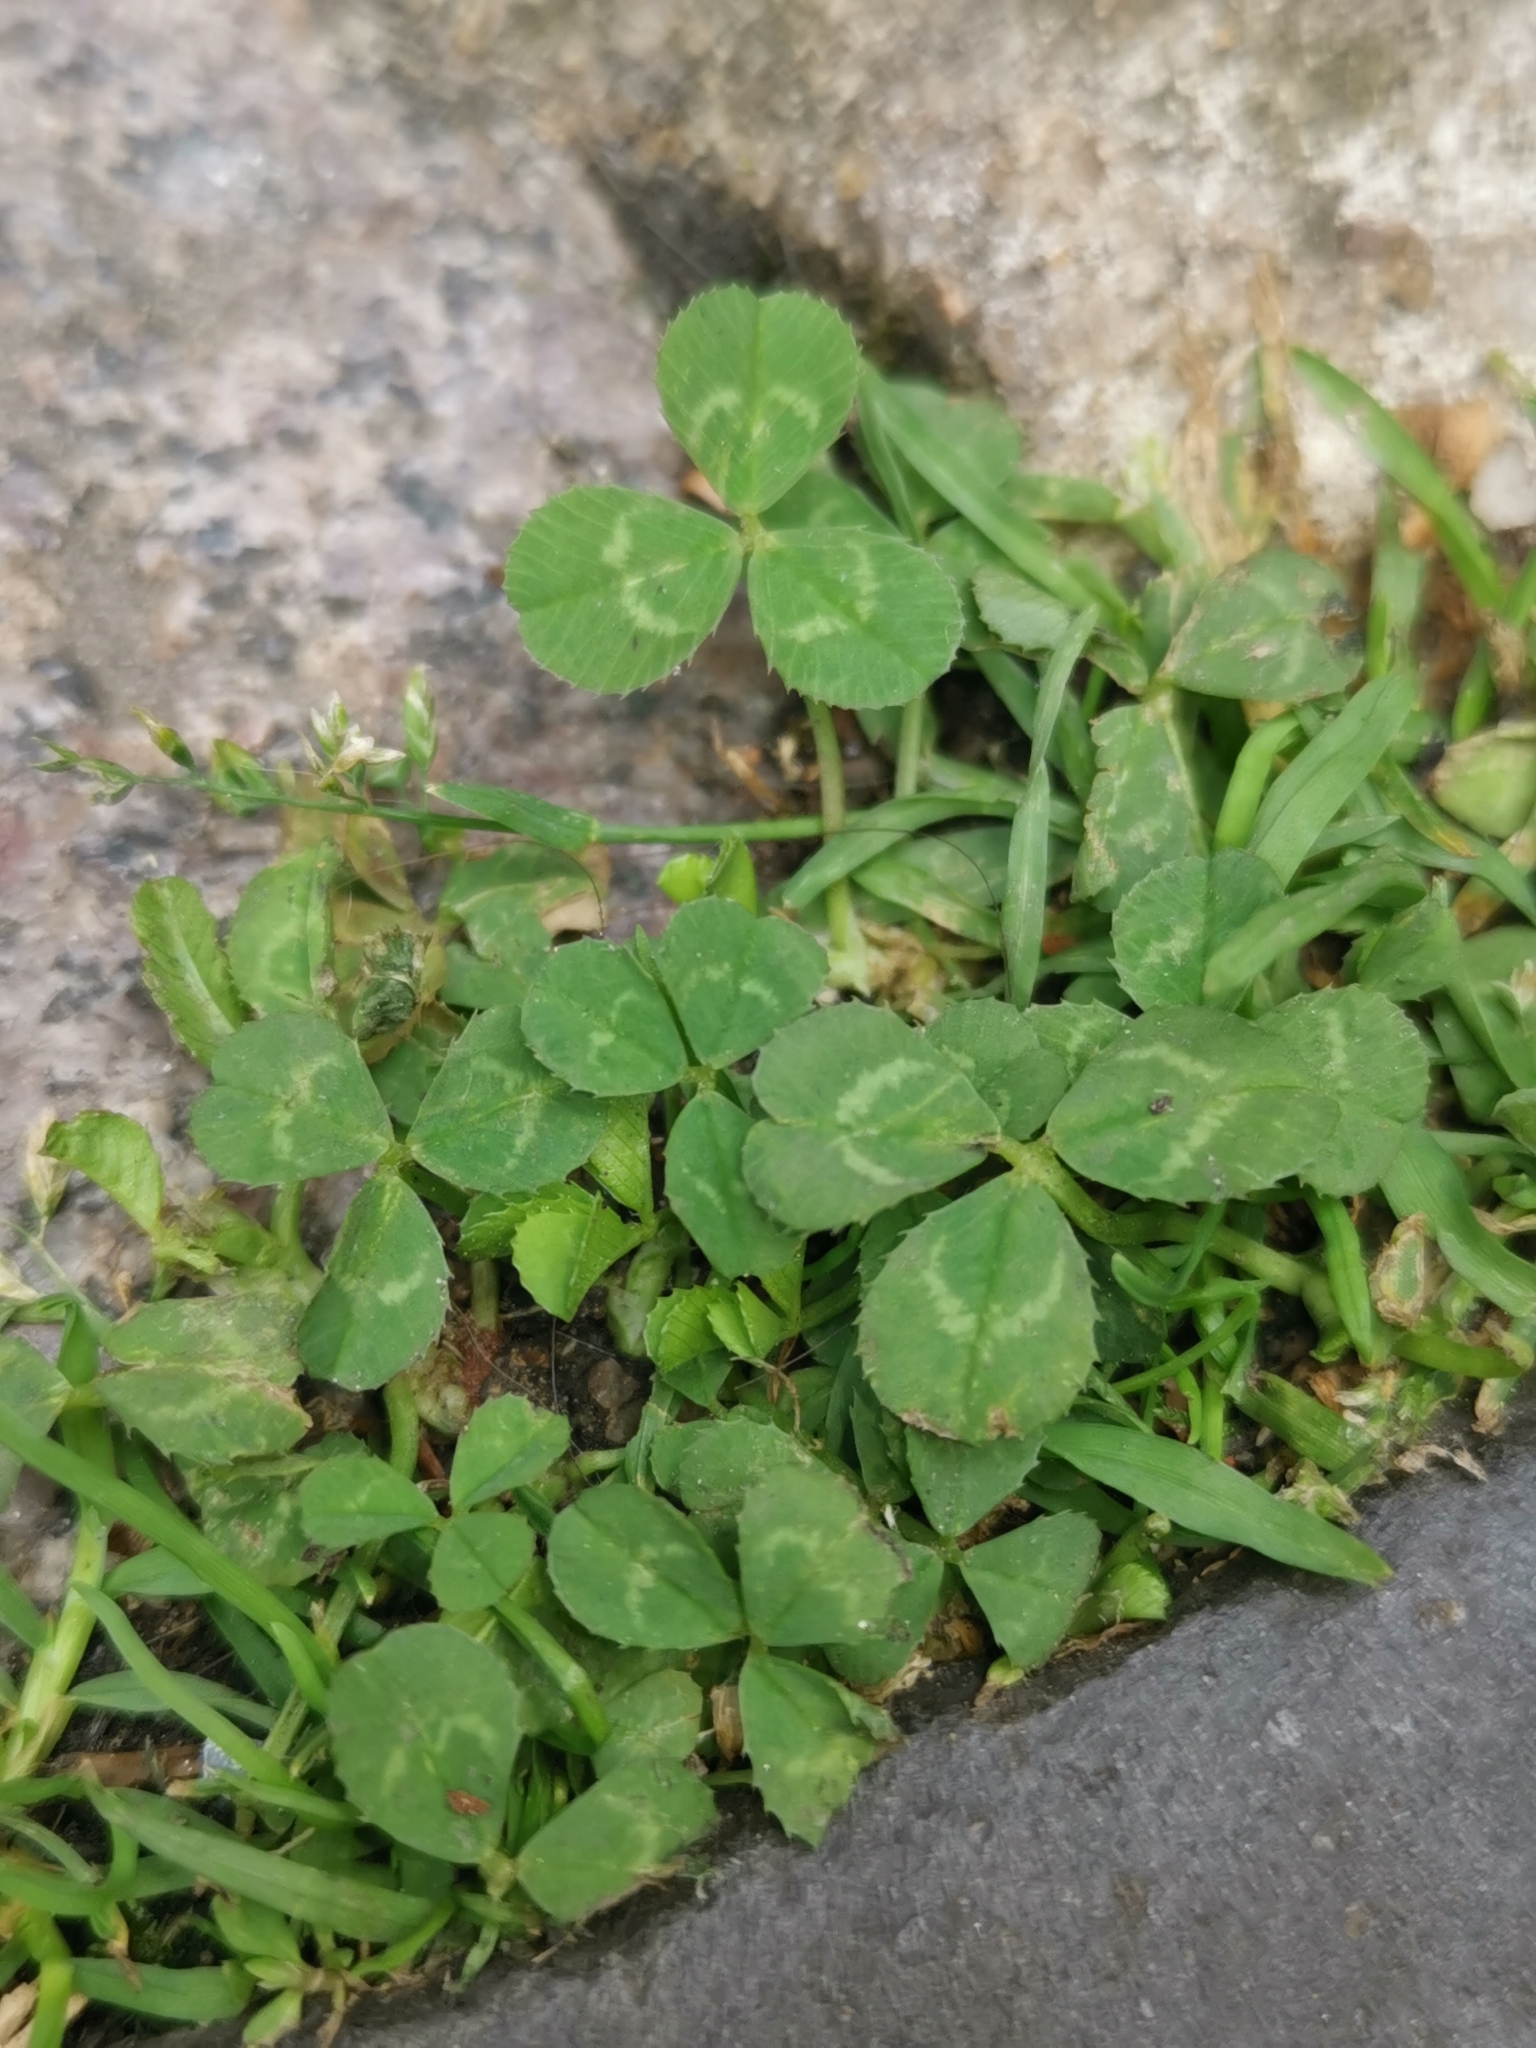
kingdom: Plantae
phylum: Tracheophyta
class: Magnoliopsida
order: Fabales
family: Fabaceae
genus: Trifolium
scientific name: Trifolium repens
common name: White clover
